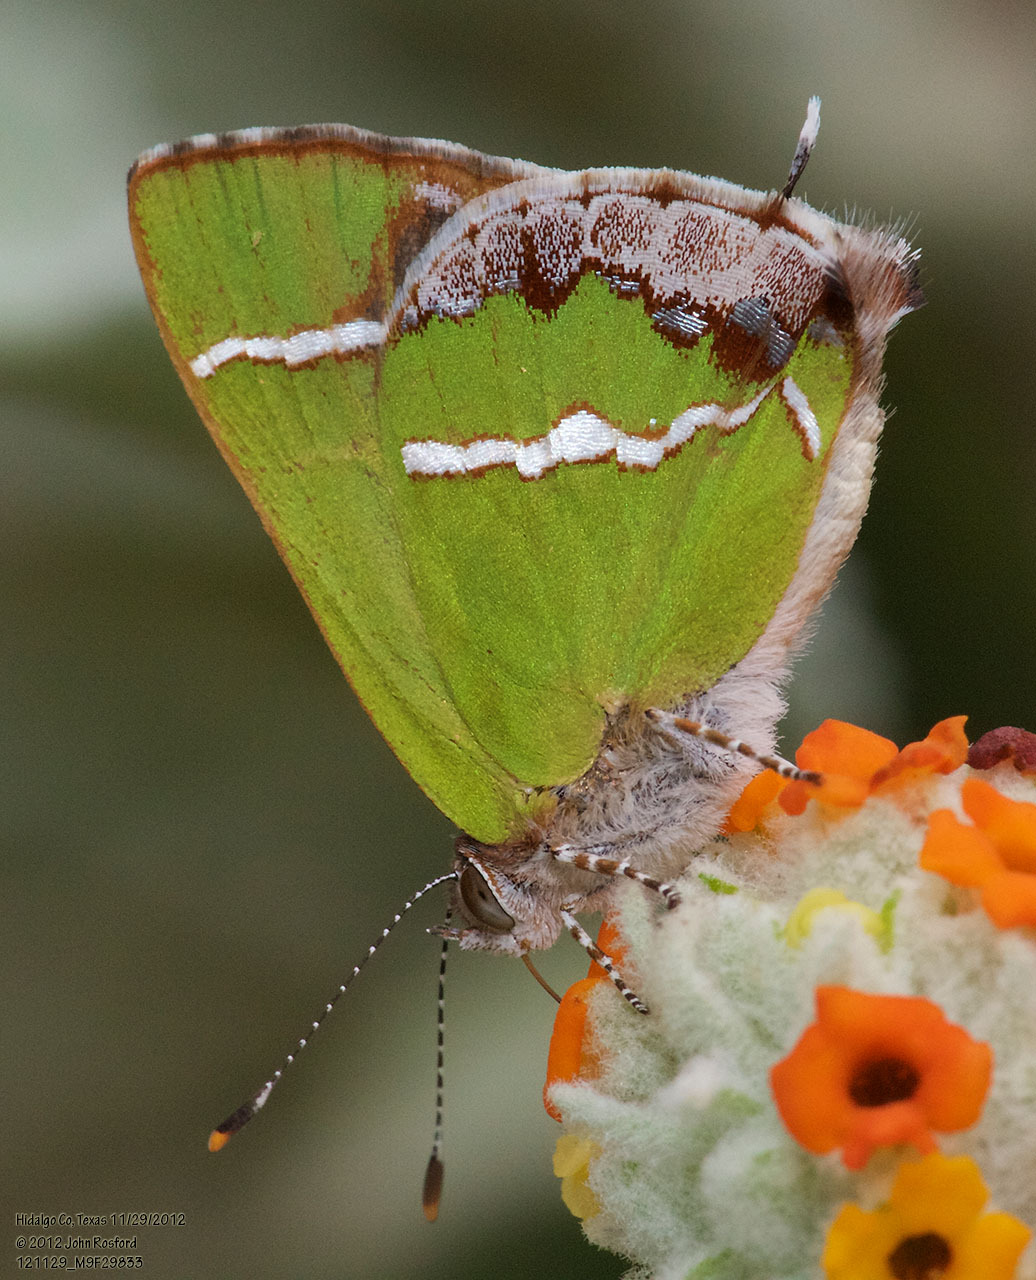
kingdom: Animalia
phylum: Arthropoda
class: Insecta
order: Lepidoptera
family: Lycaenidae
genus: Chlorostrymon
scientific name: Chlorostrymon simaethis
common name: Silver-banded hairstreak
